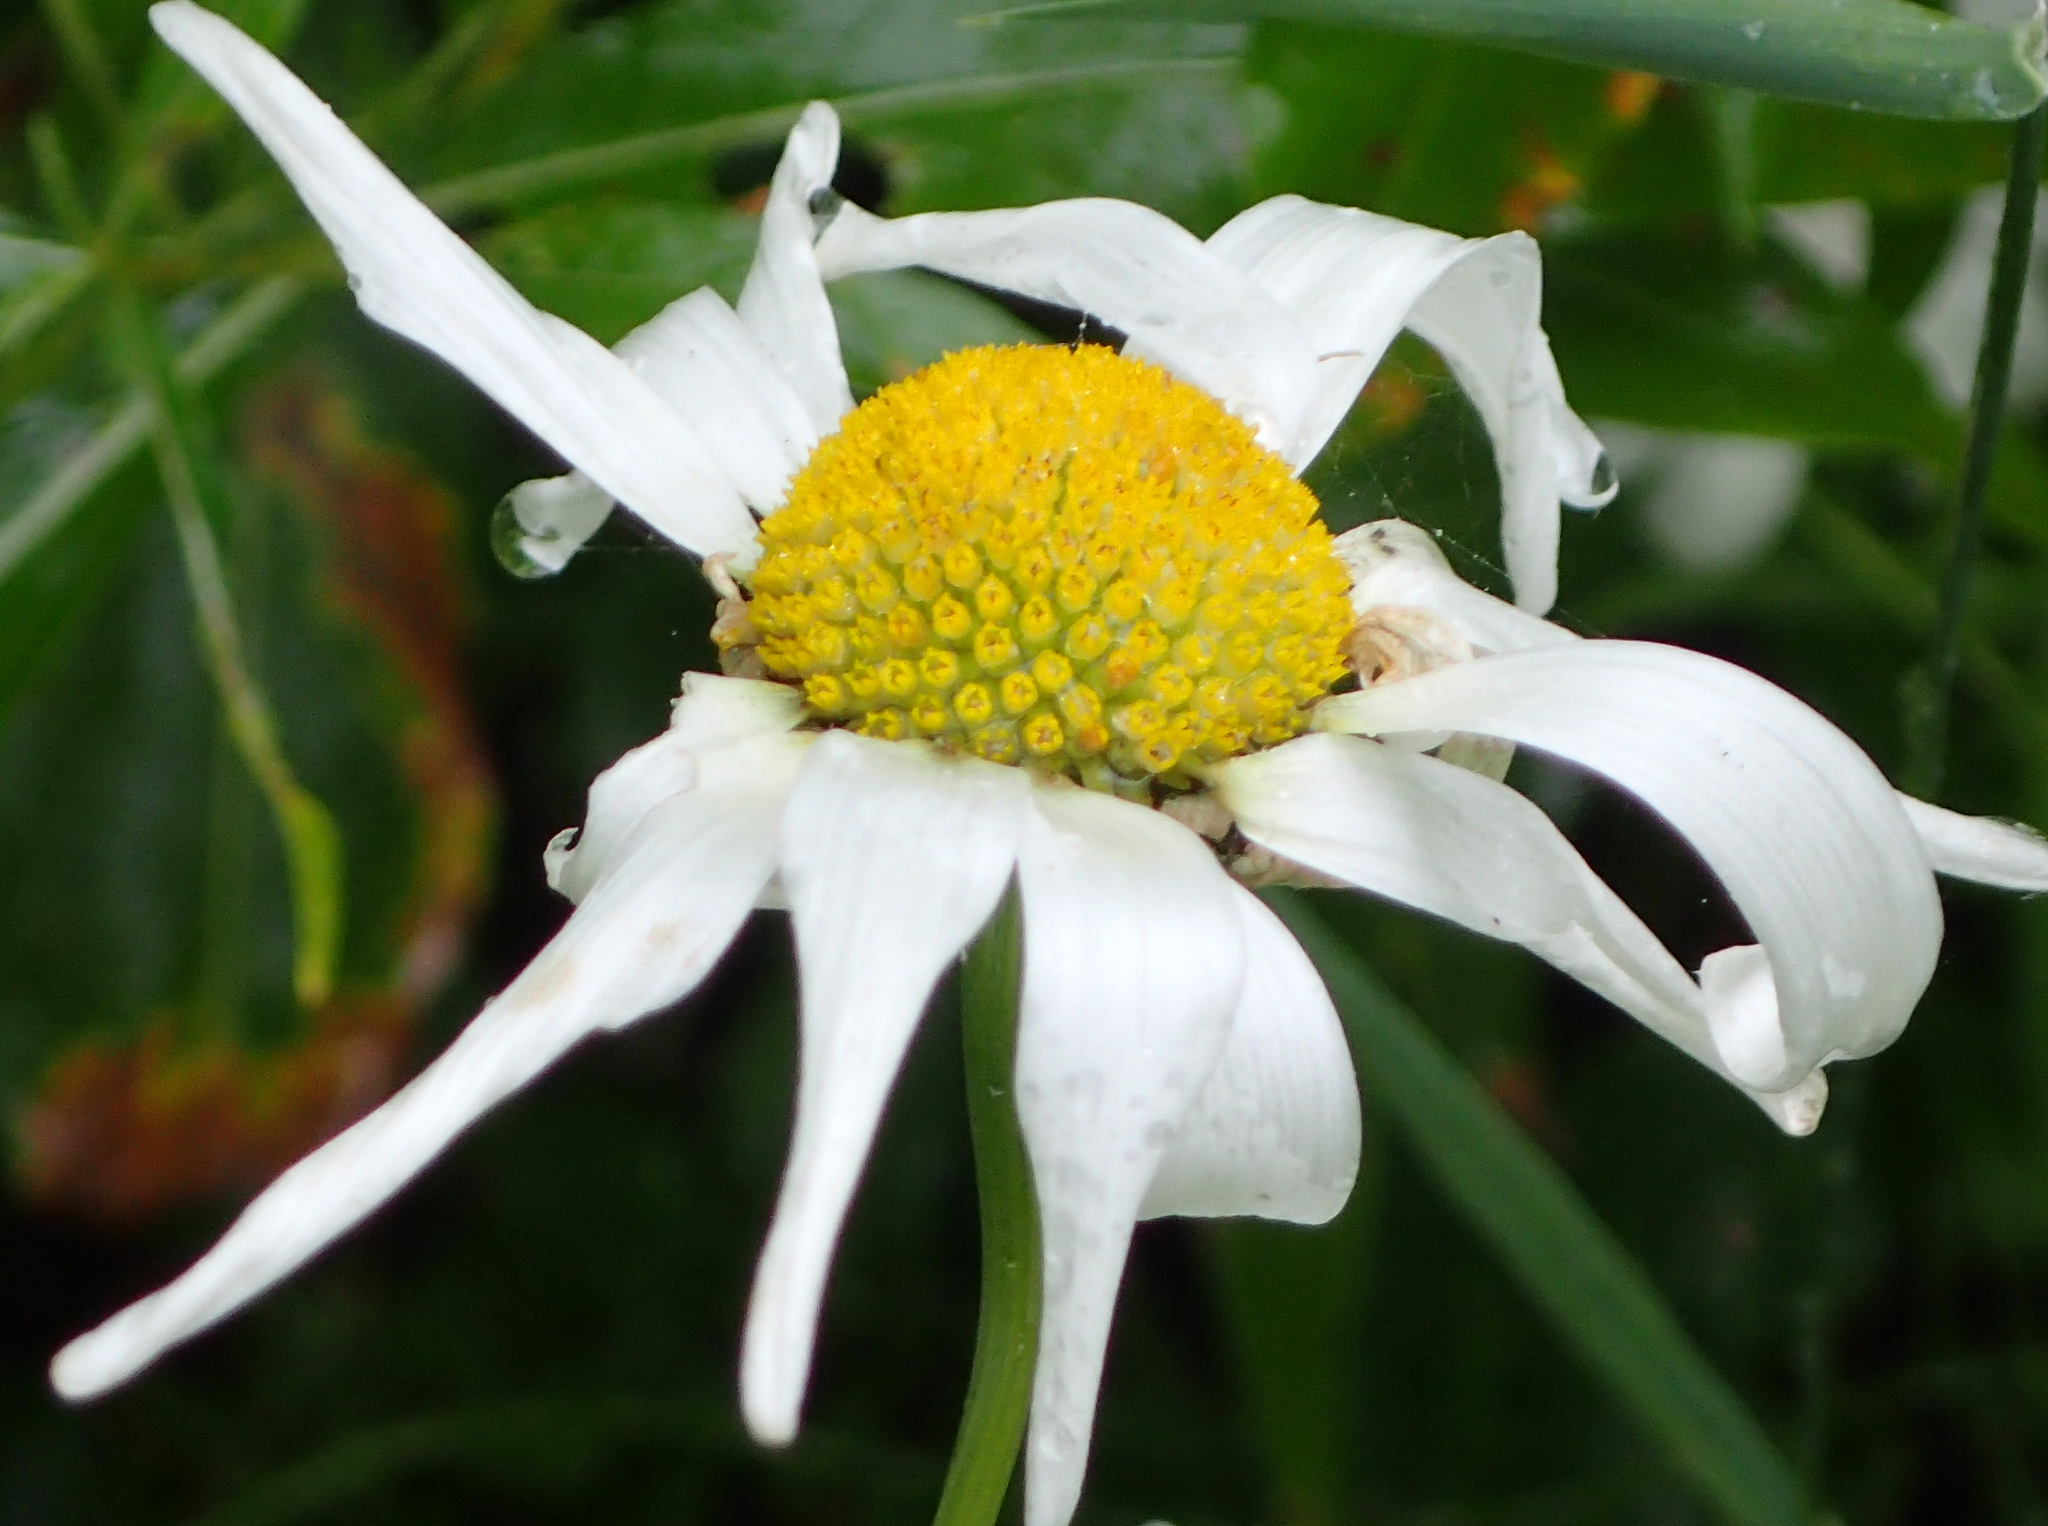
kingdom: Plantae
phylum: Tracheophyta
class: Magnoliopsida
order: Asterales
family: Asteraceae
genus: Leucanthemum
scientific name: Leucanthemum vulgare
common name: Oxeye daisy
